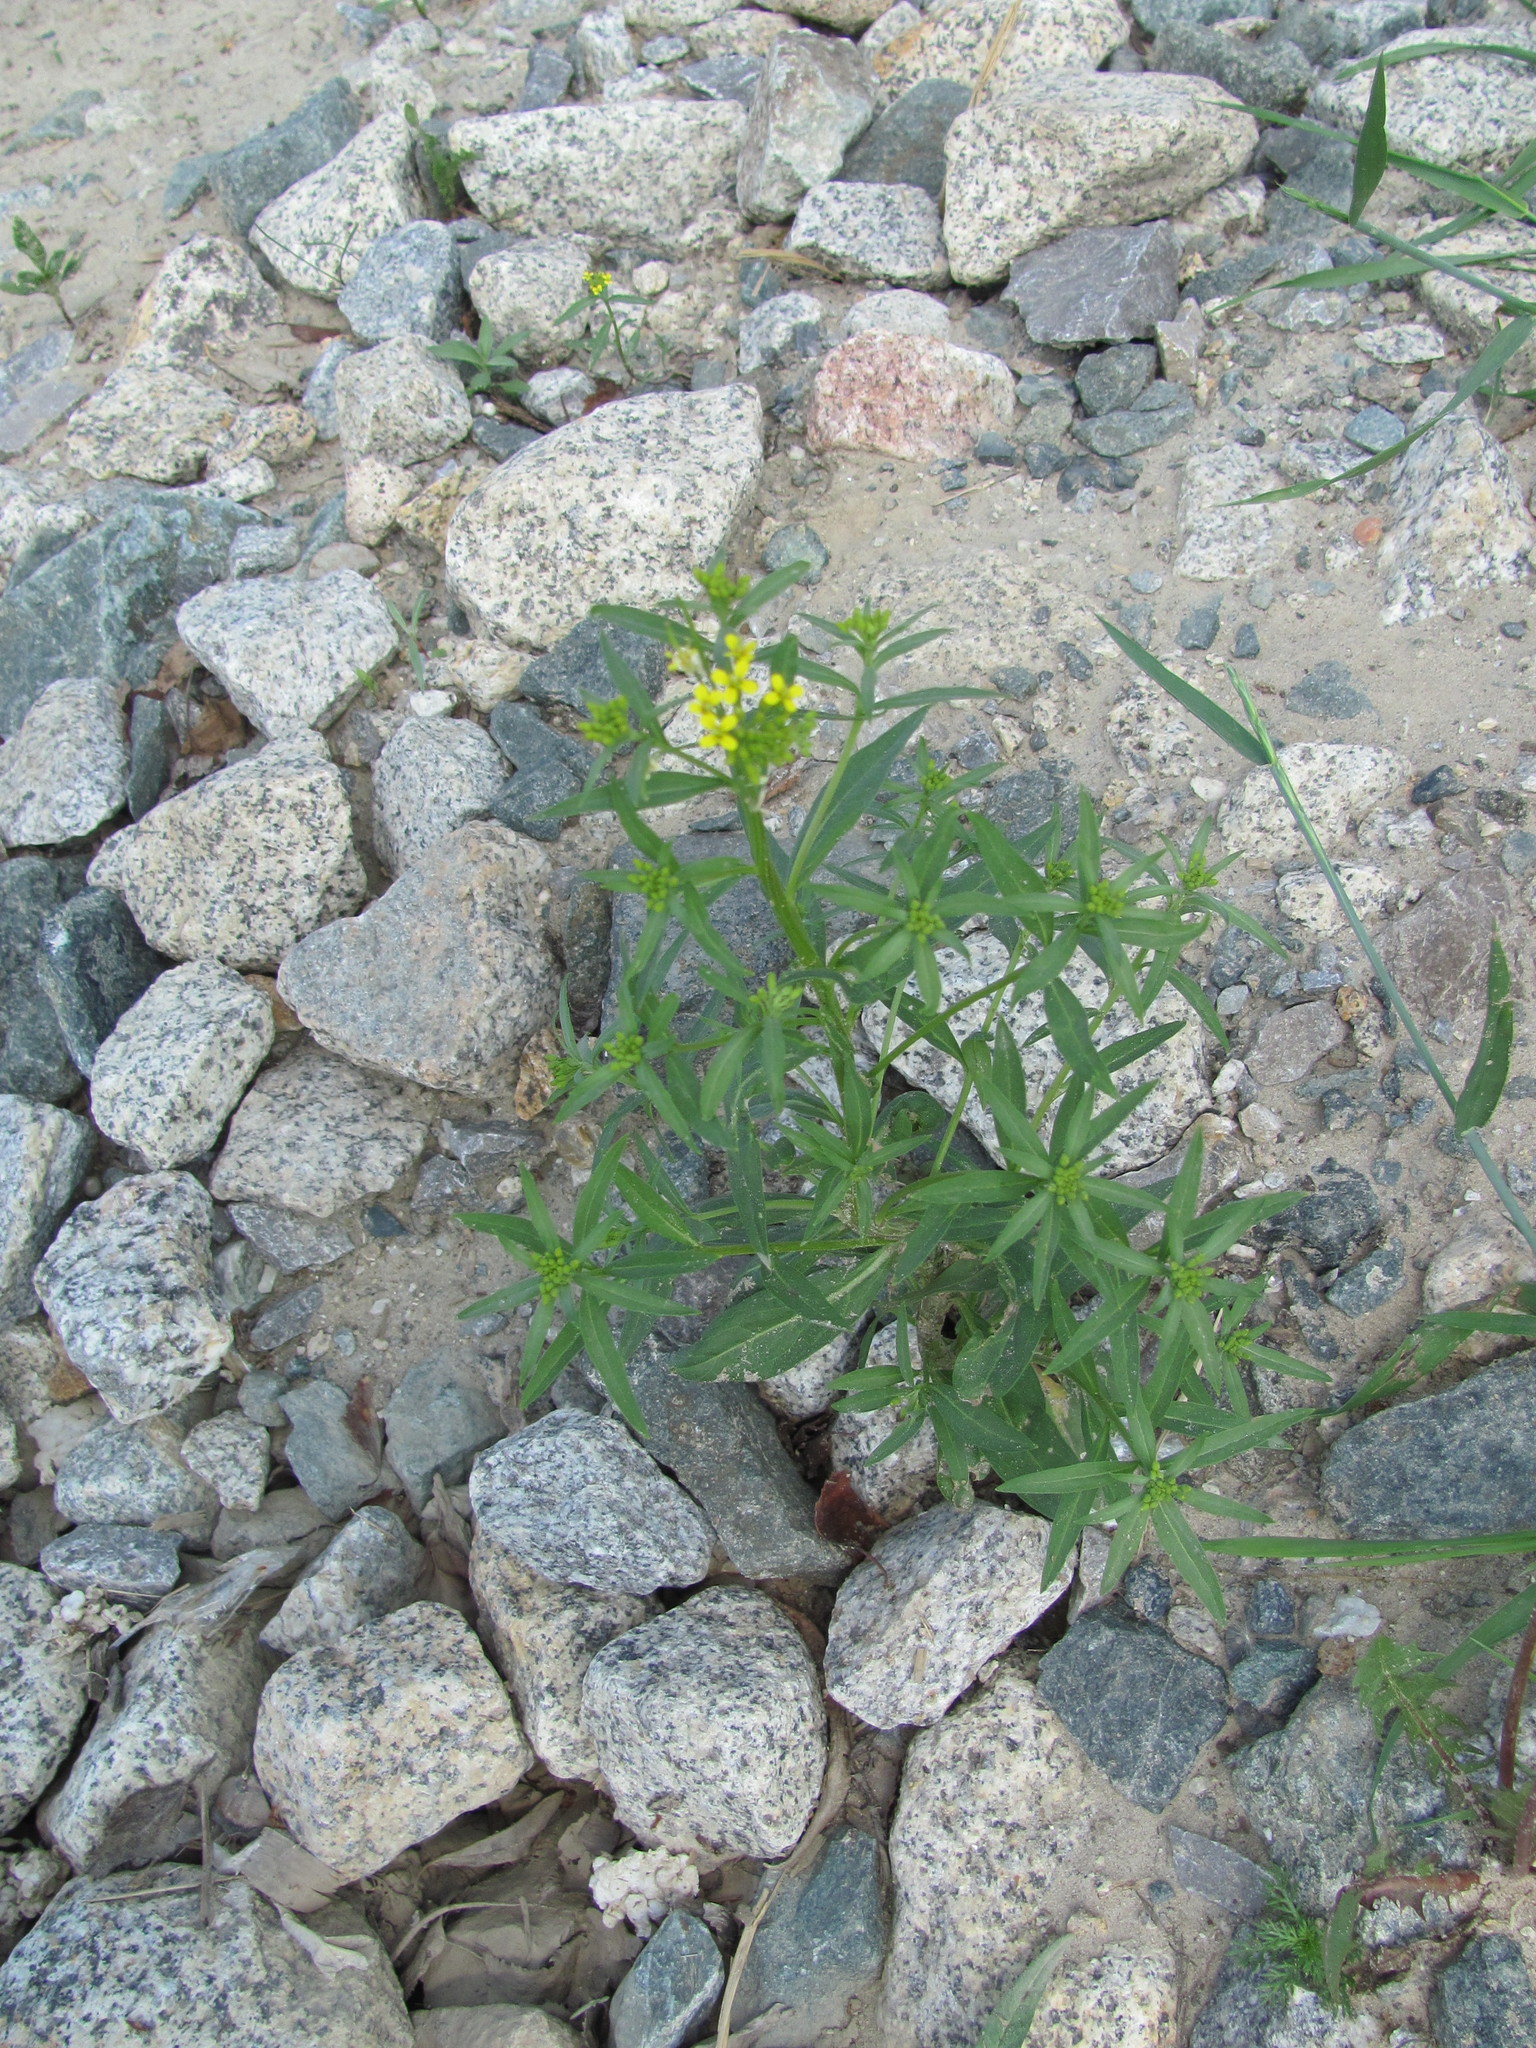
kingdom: Plantae
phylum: Tracheophyta
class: Magnoliopsida
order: Brassicales
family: Brassicaceae
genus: Erysimum
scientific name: Erysimum cheiranthoides
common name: Treacle mustard
